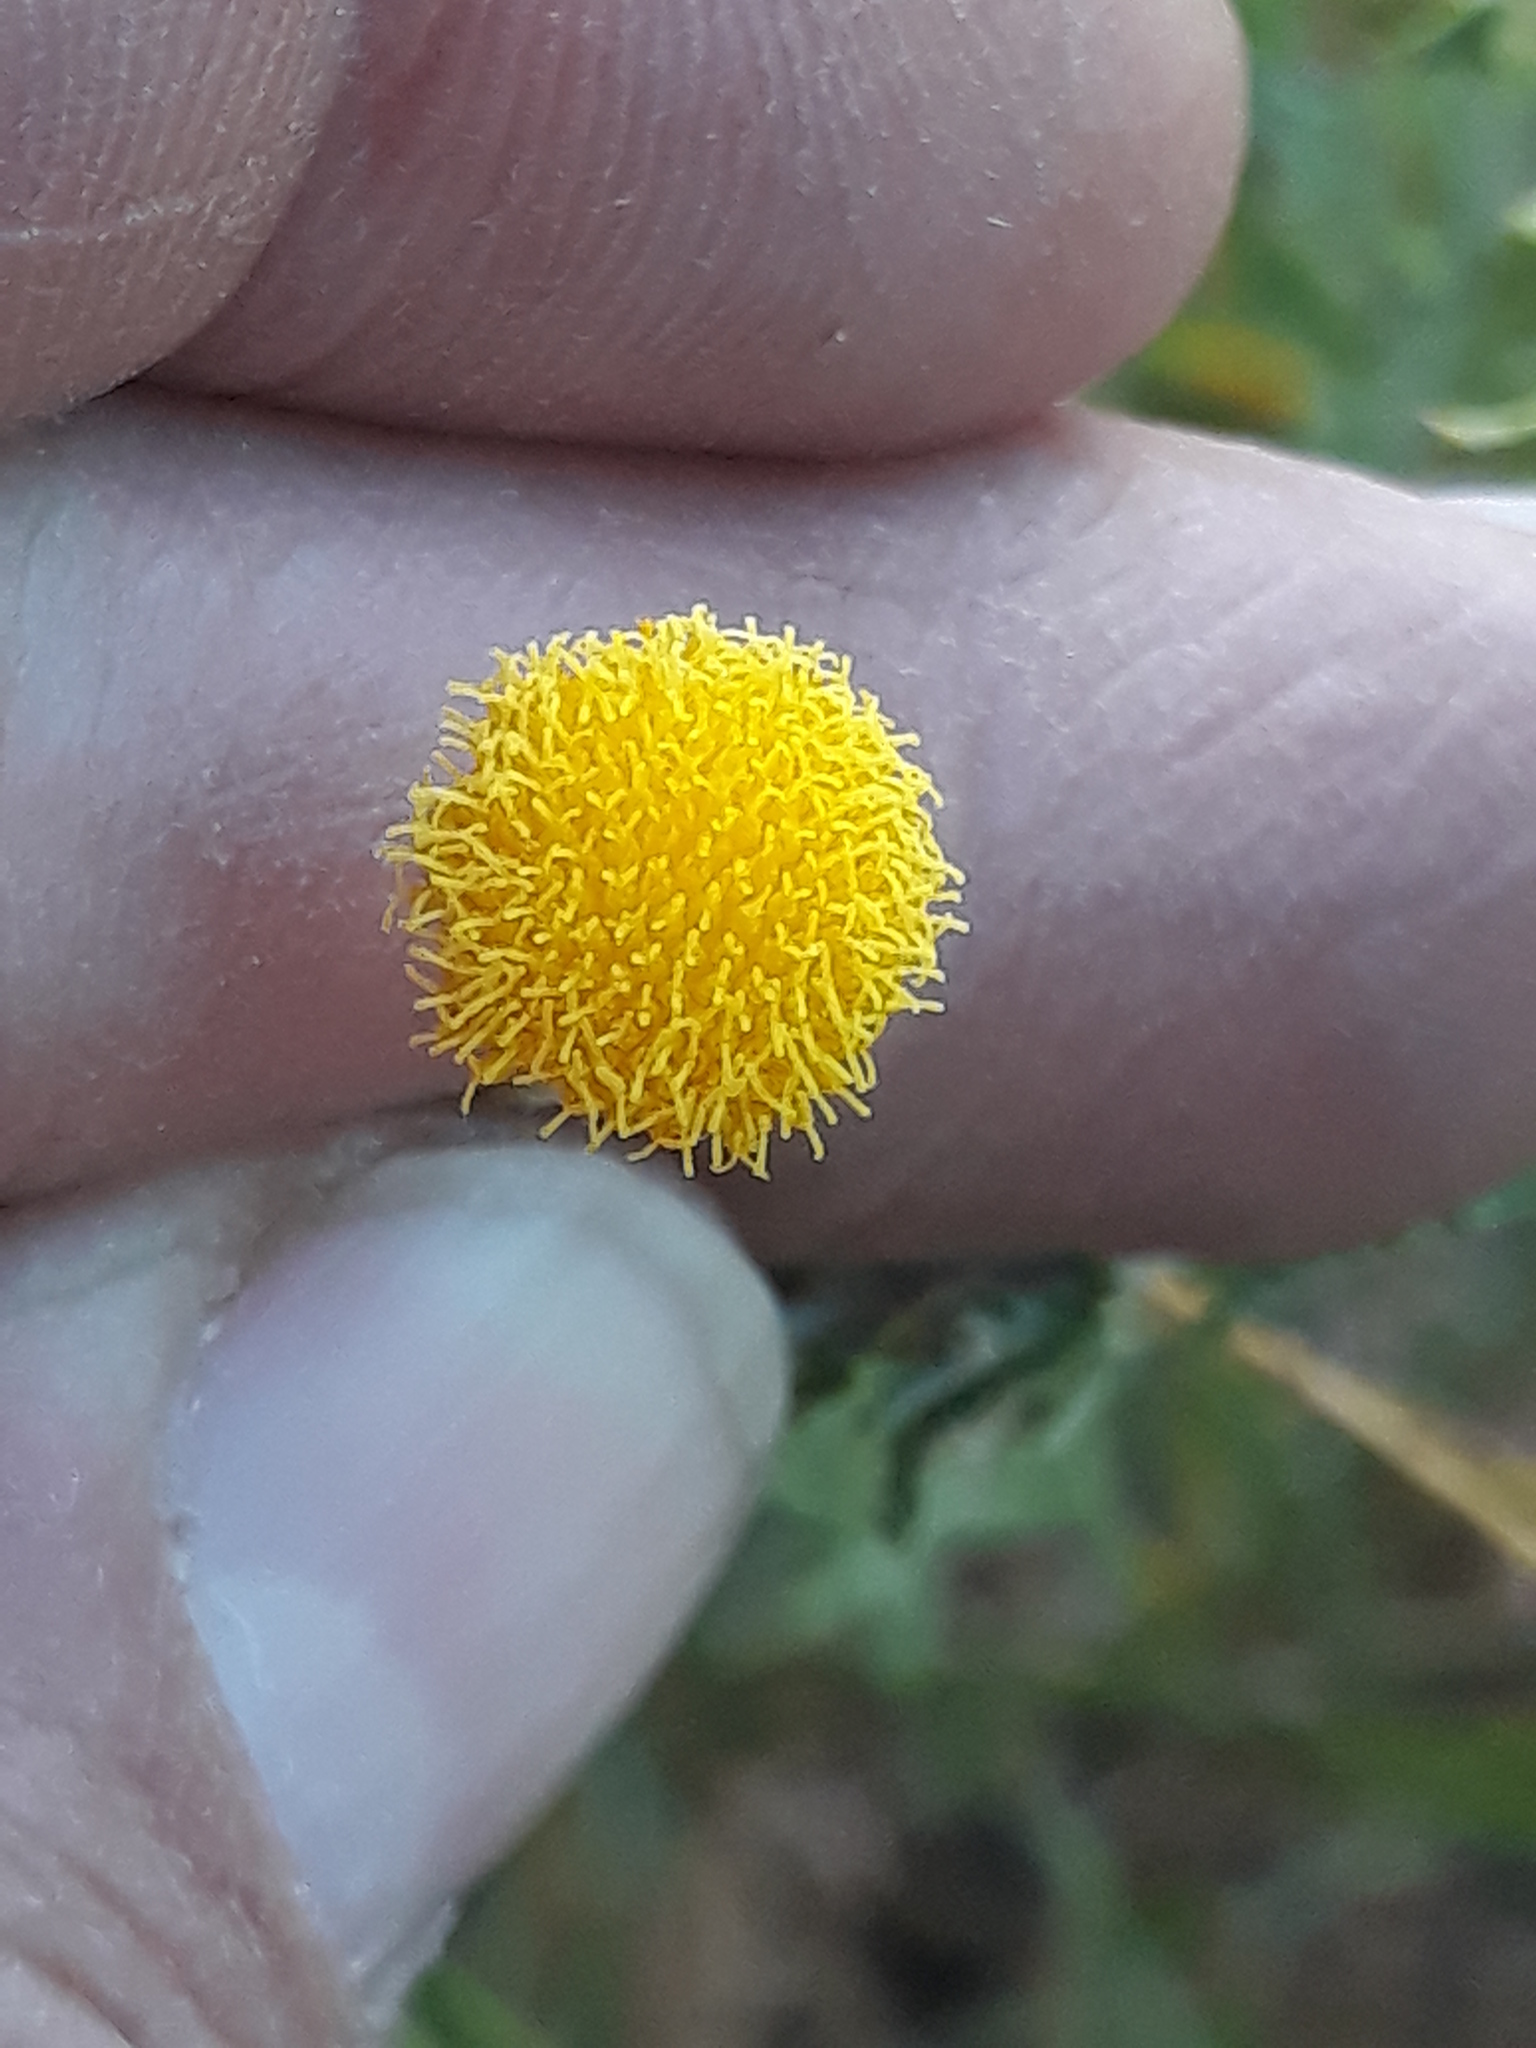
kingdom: Plantae
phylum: Tracheophyta
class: Magnoliopsida
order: Asterales
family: Asteraceae
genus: Pulicaria
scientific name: Pulicaria undulata
